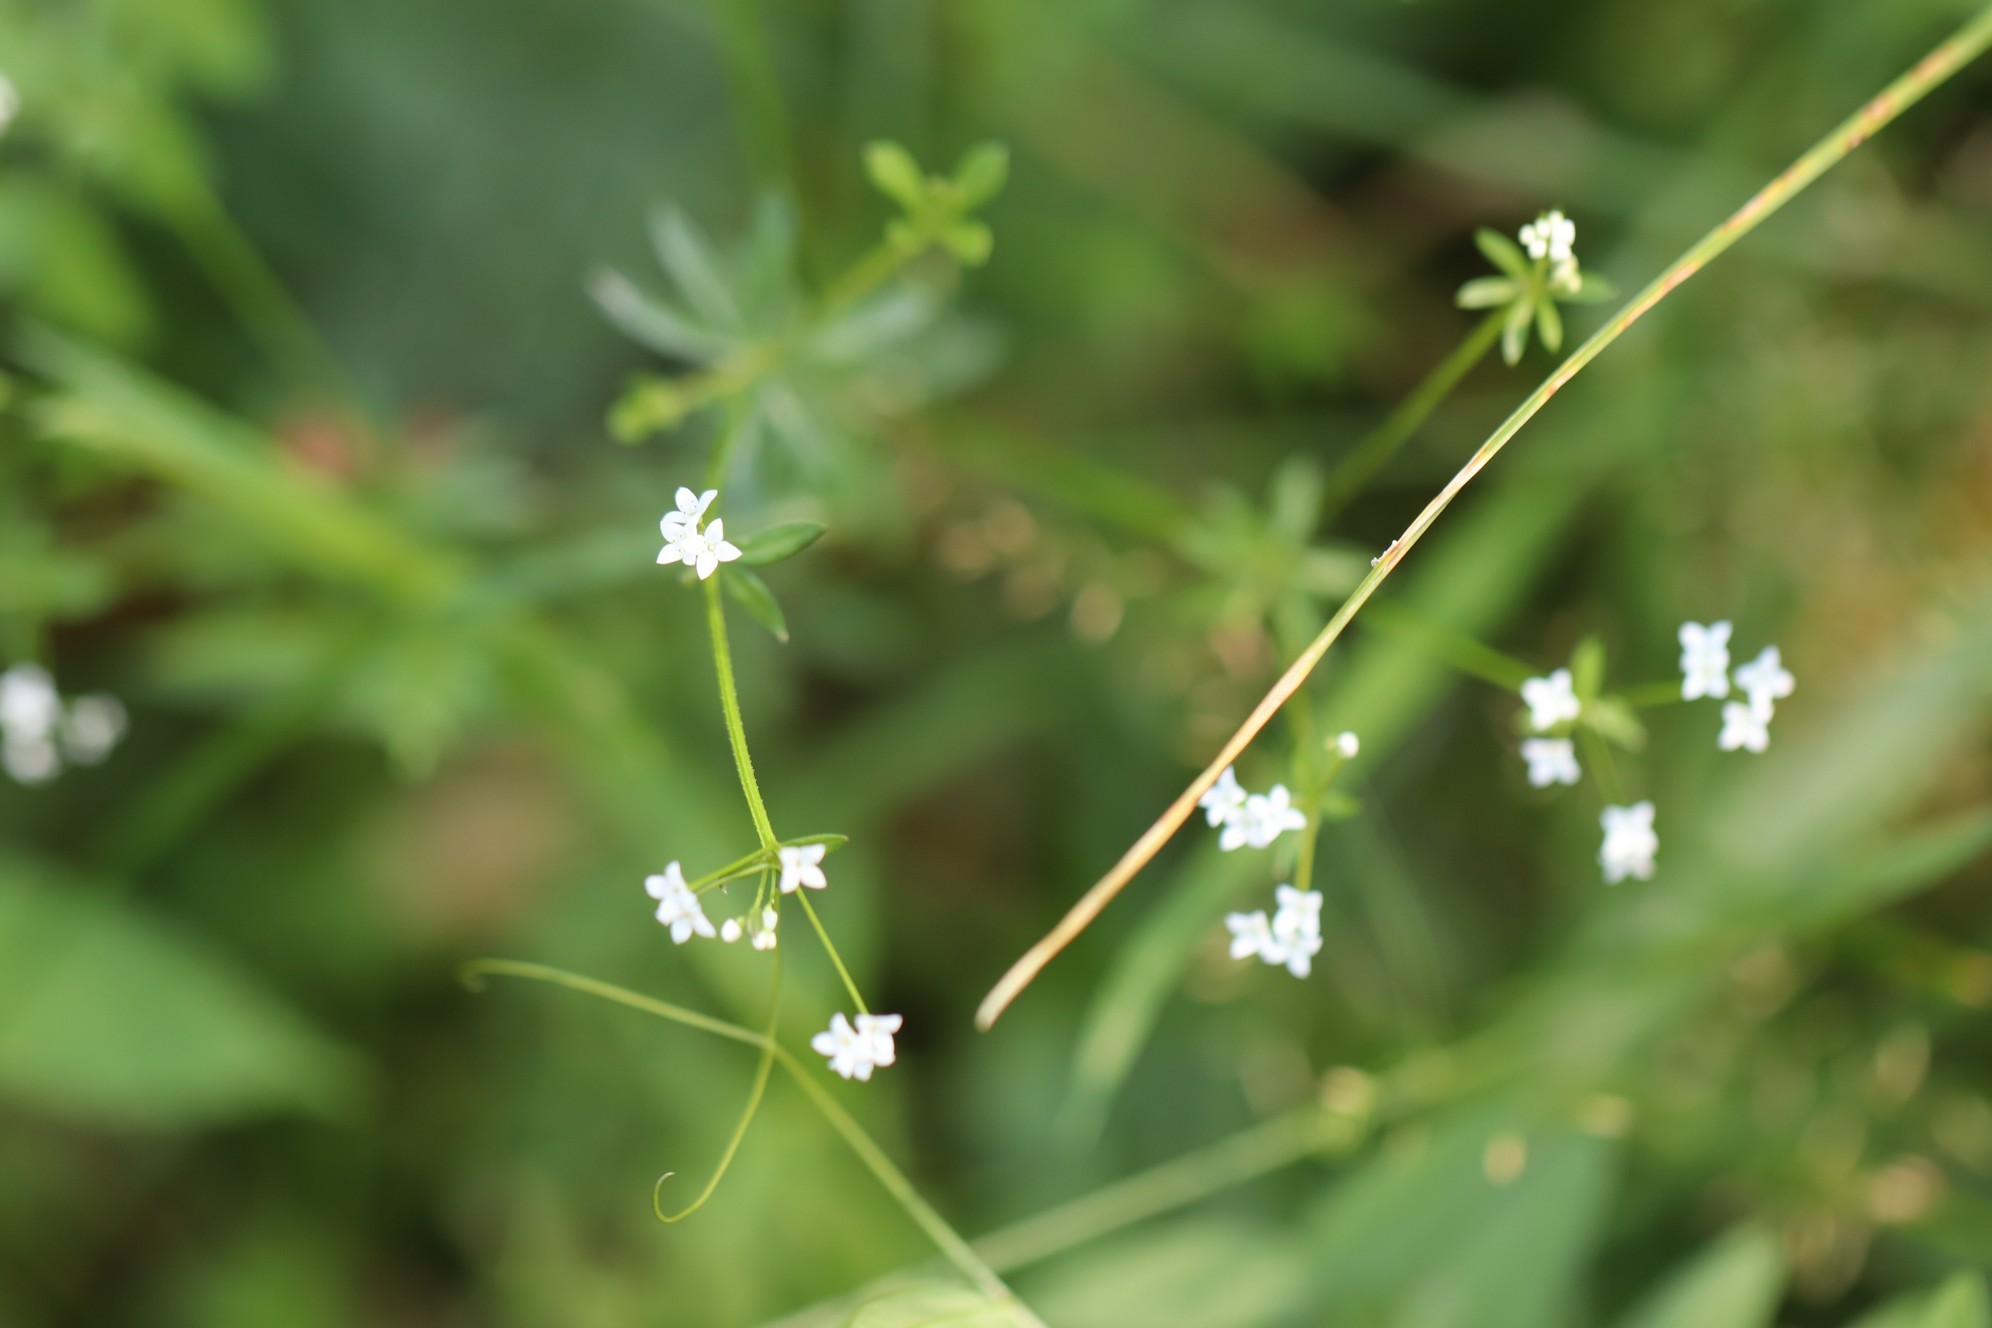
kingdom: Plantae
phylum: Tracheophyta
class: Magnoliopsida
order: Gentianales
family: Rubiaceae
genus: Galium
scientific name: Galium uliginosum
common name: Fen bedstraw
